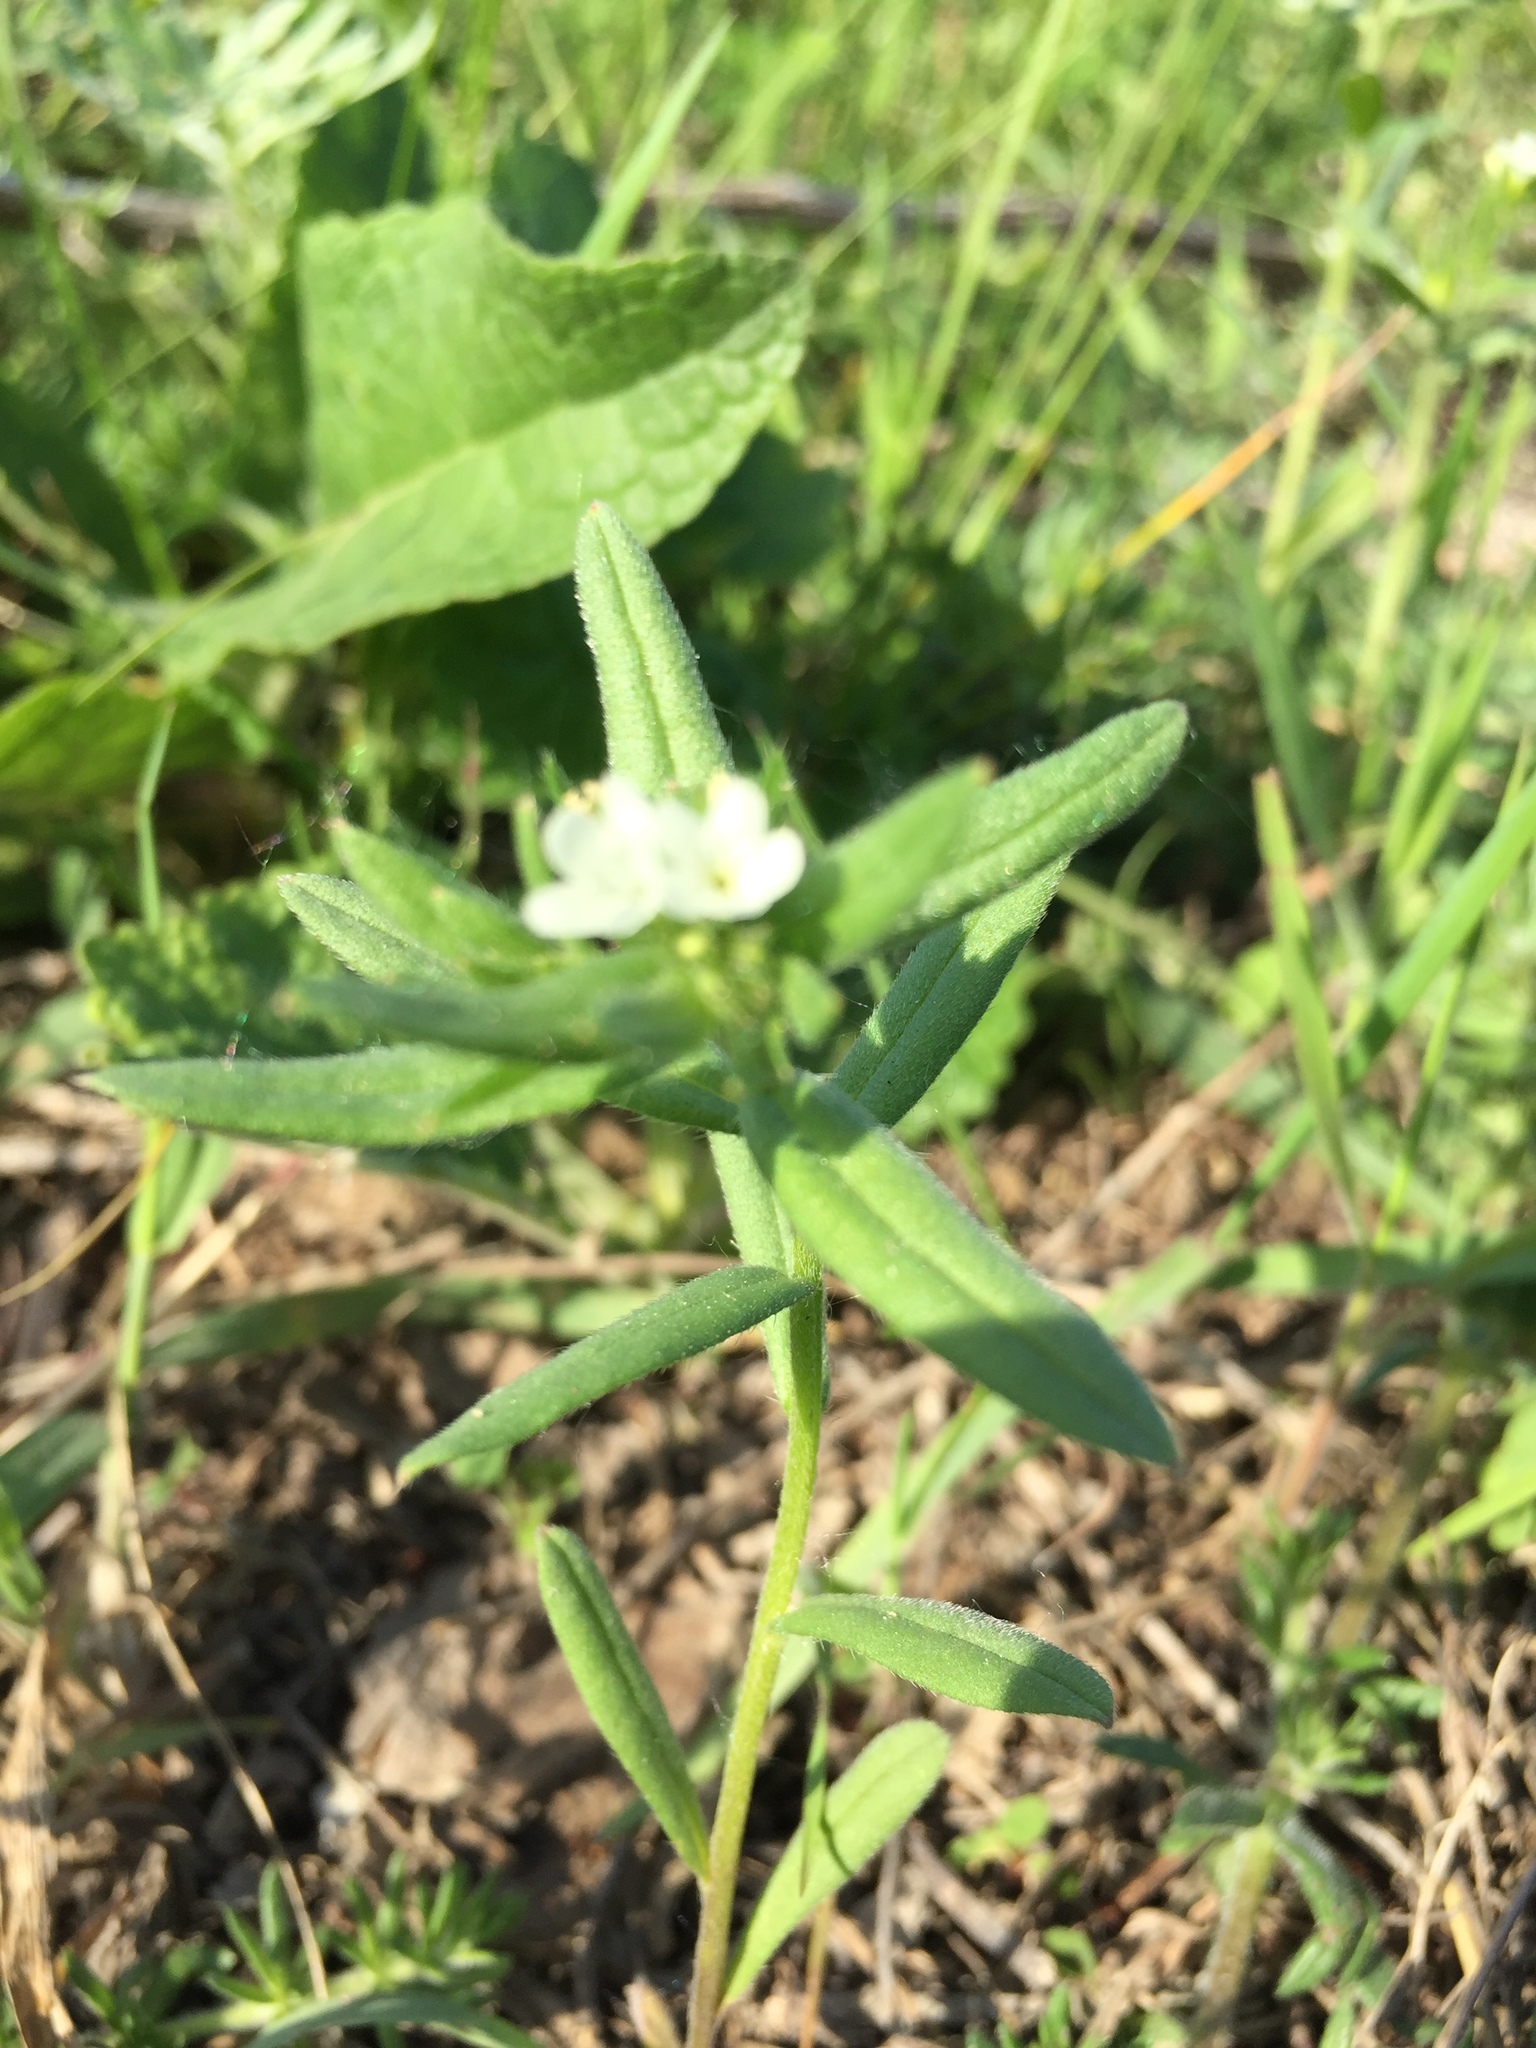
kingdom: Plantae
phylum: Tracheophyta
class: Magnoliopsida
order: Boraginales
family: Boraginaceae
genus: Buglossoides
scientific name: Buglossoides arvensis
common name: Corn gromwell
